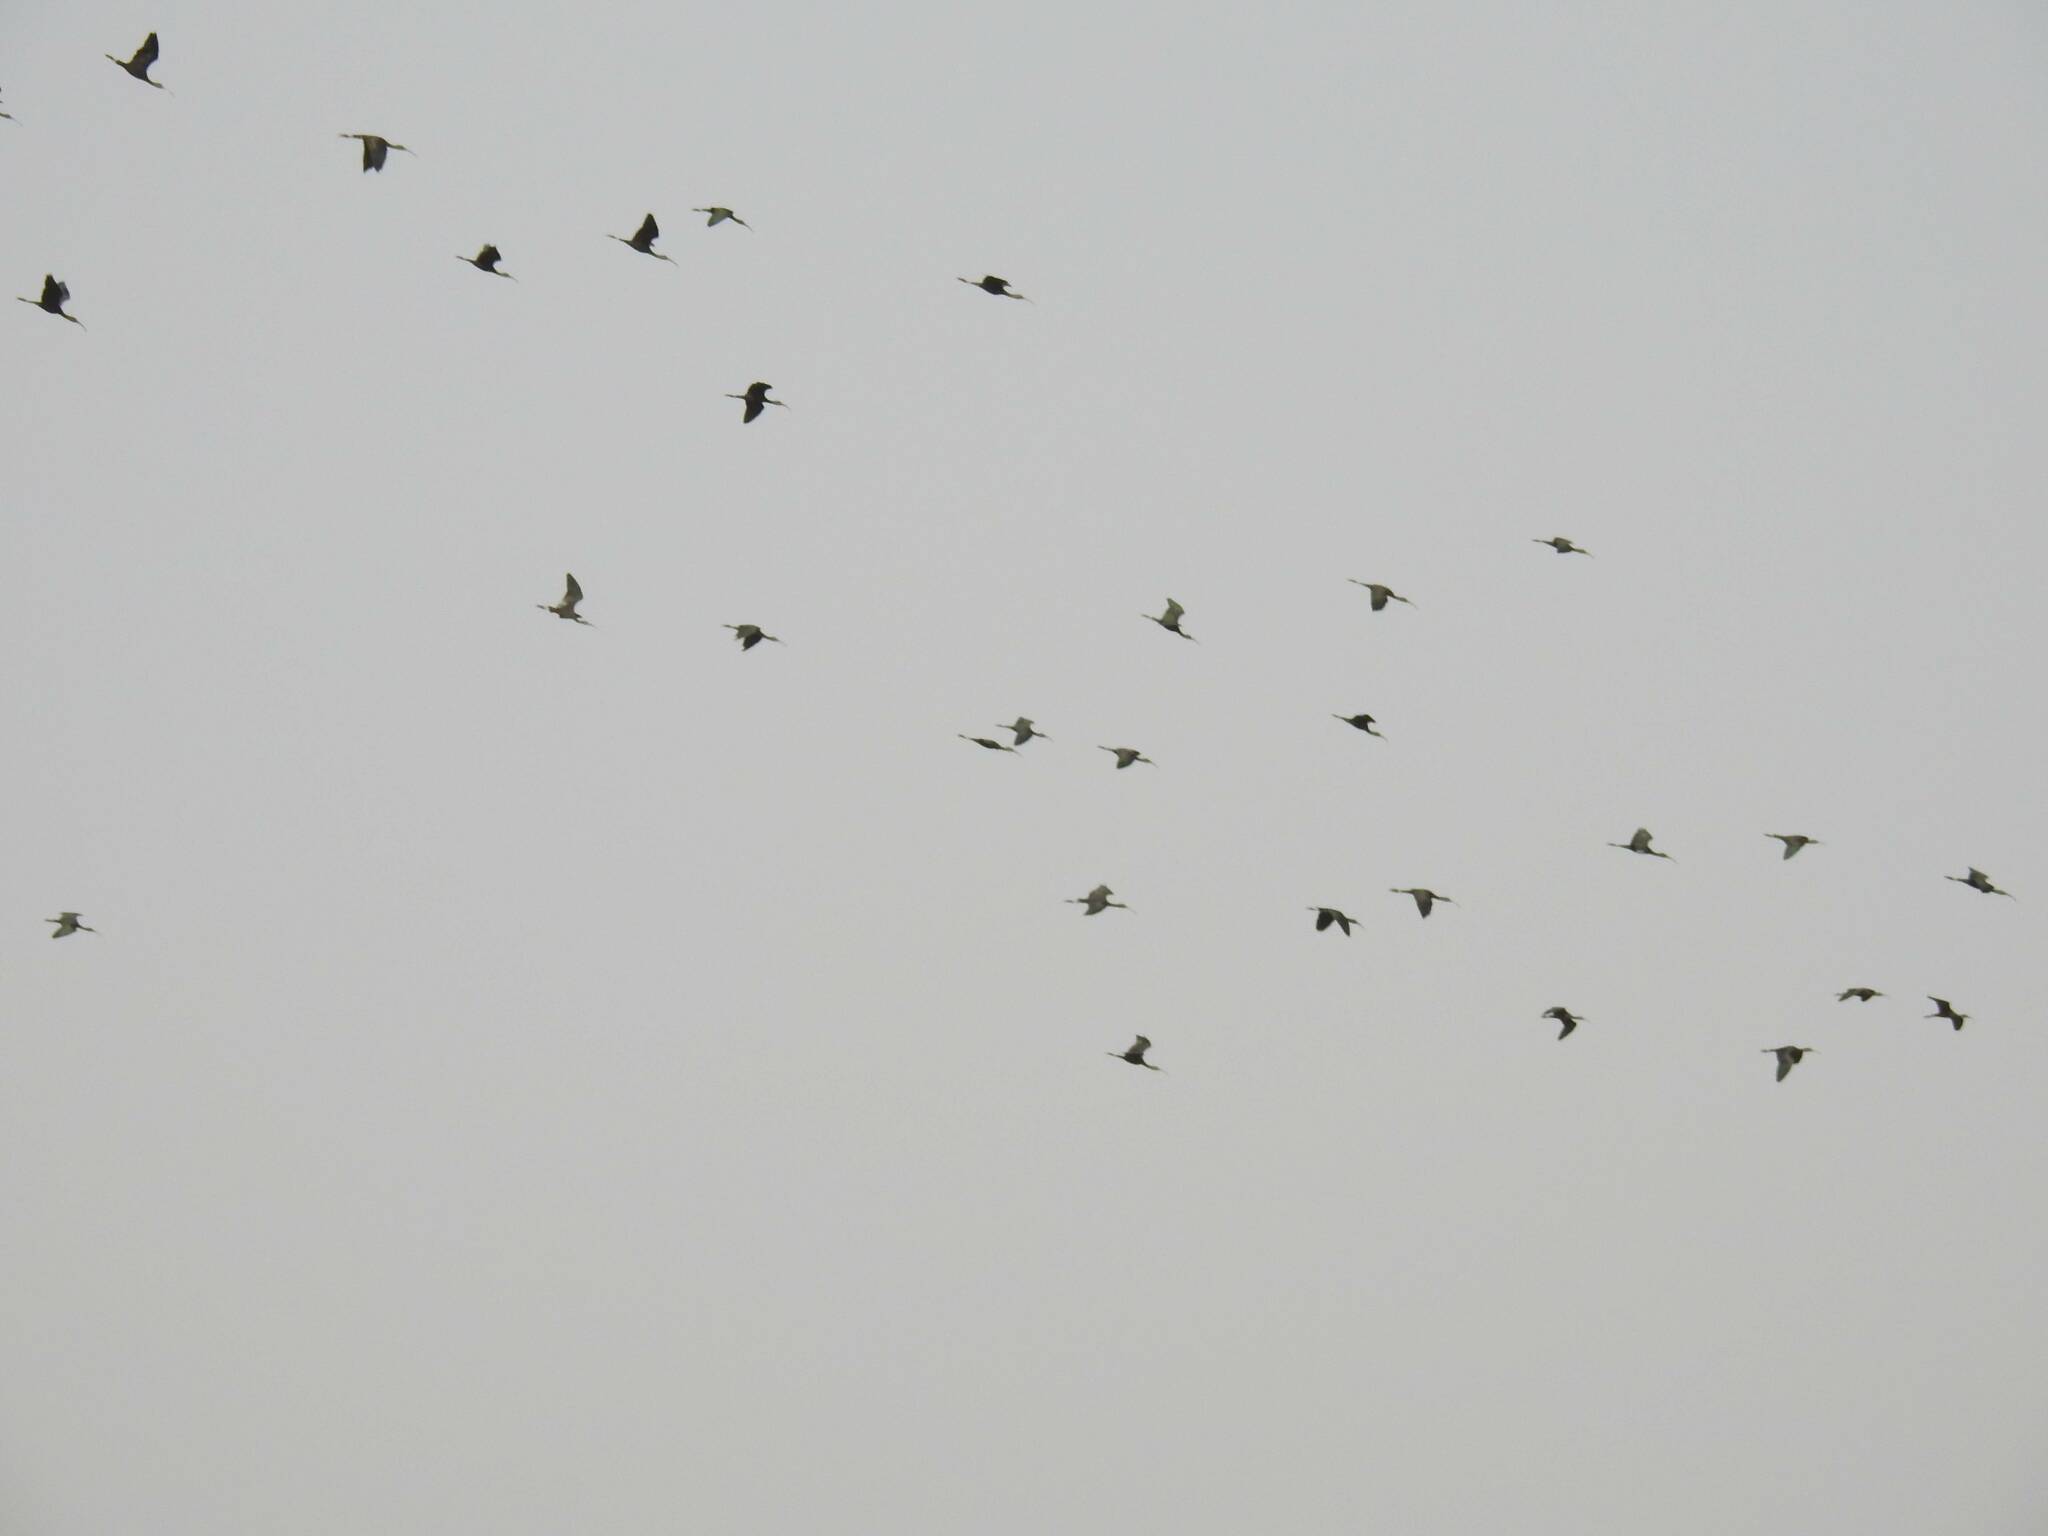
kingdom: Animalia
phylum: Chordata
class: Aves
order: Pelecaniformes
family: Threskiornithidae
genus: Plegadis
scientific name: Plegadis falcinellus
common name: Glossy ibis
